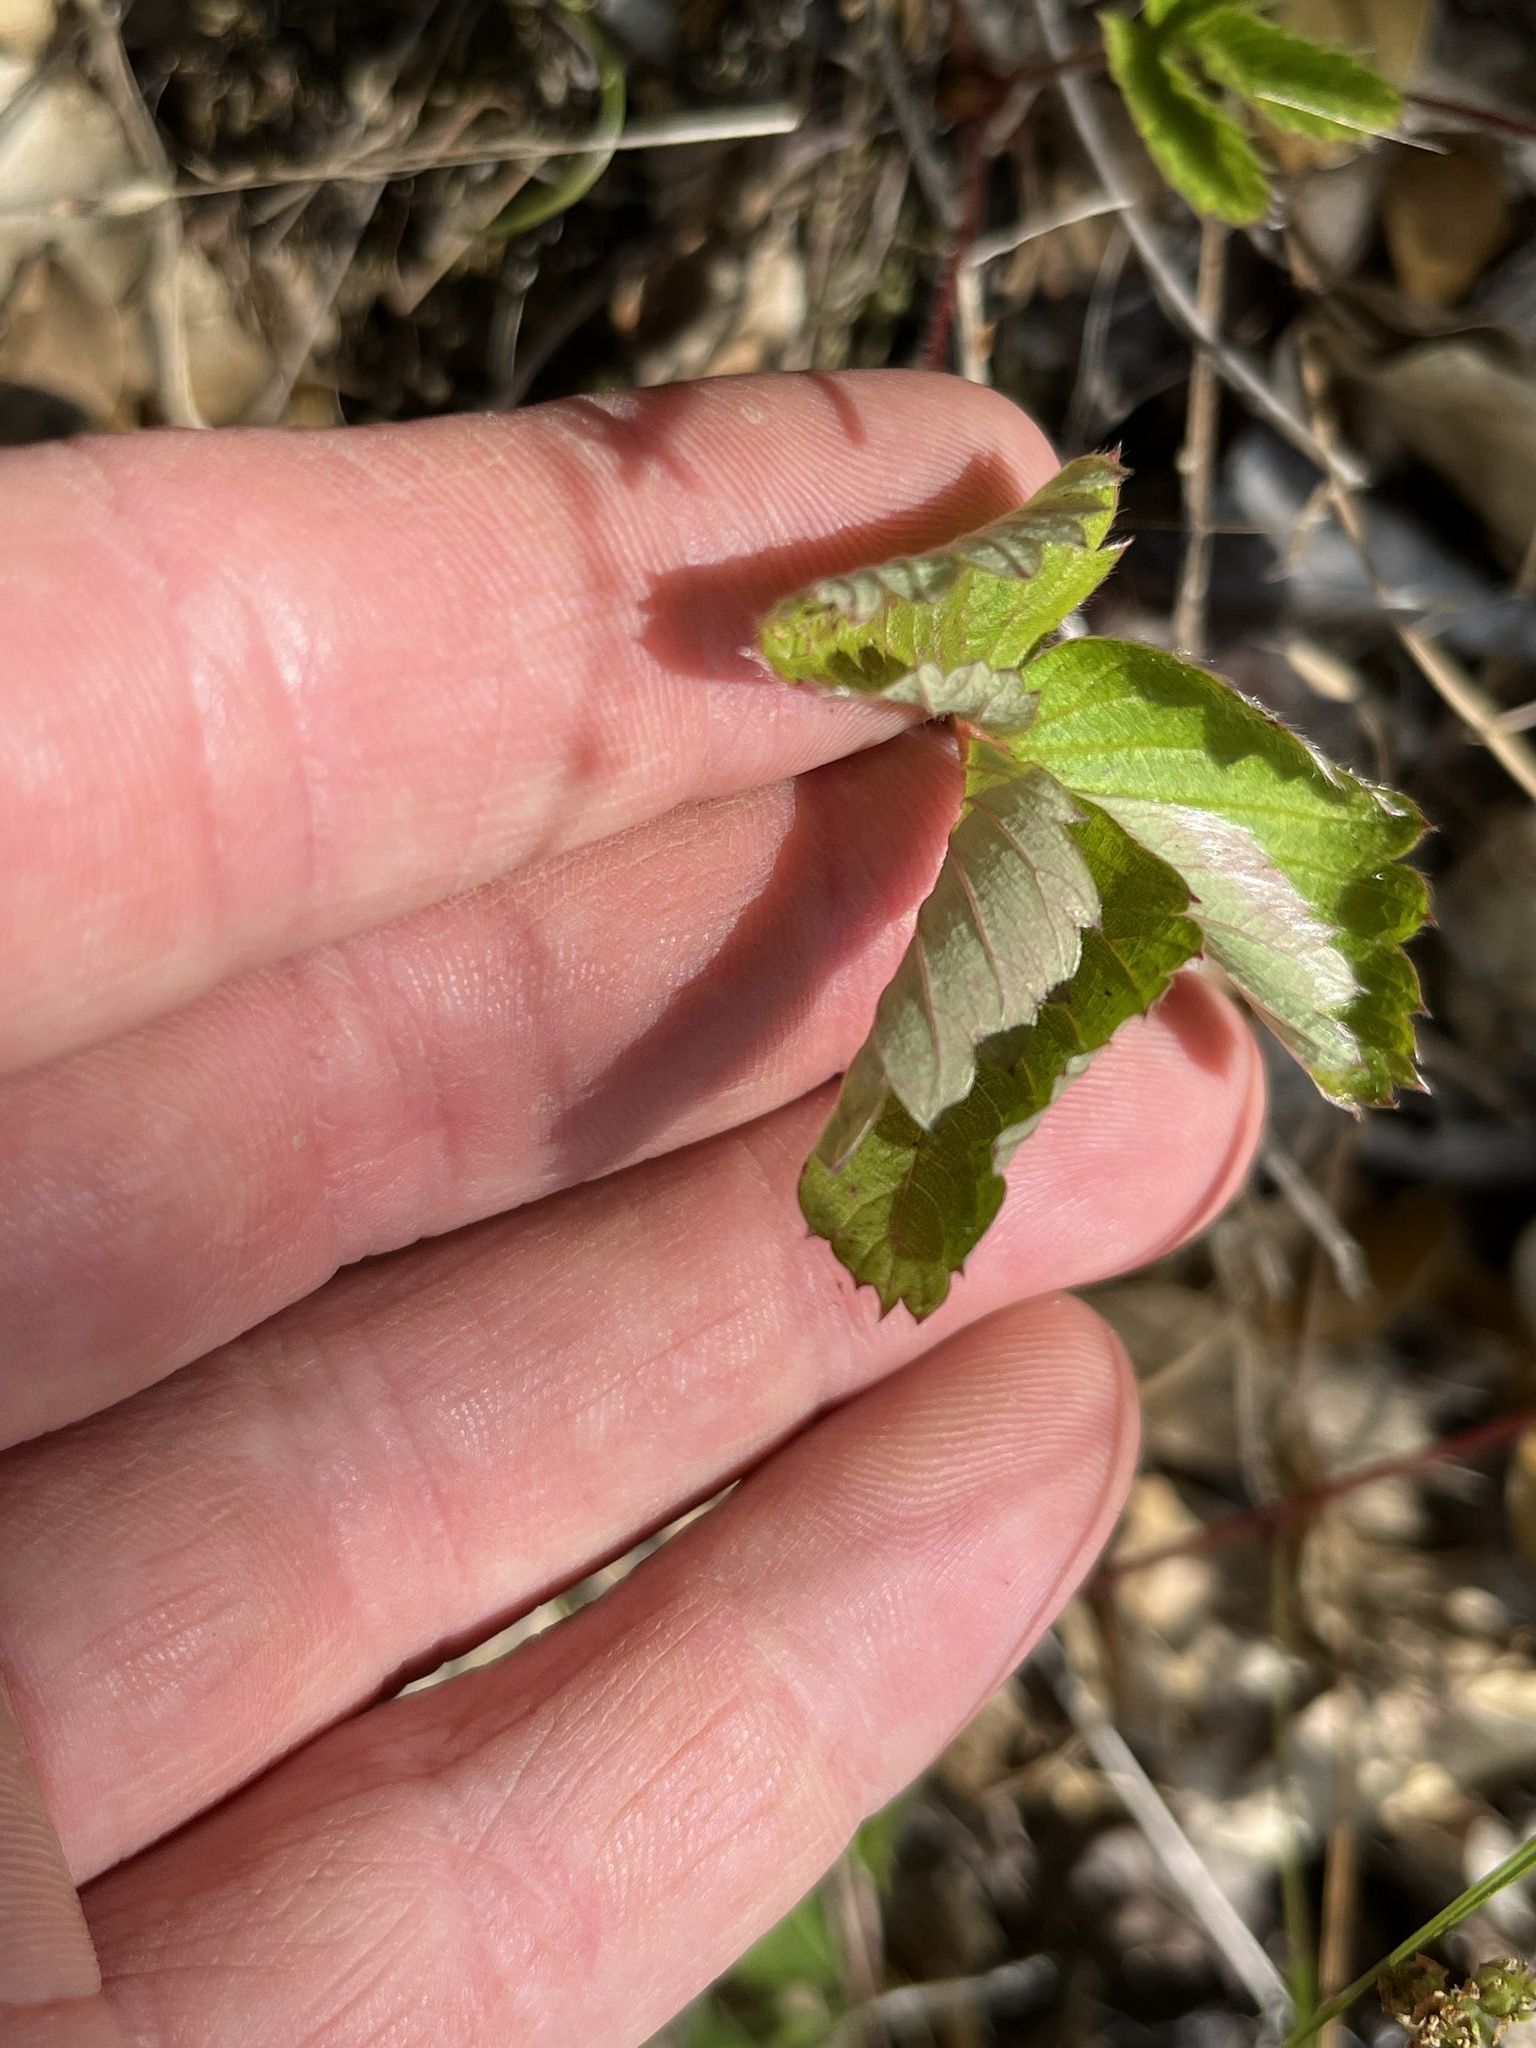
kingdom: Plantae
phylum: Tracheophyta
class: Magnoliopsida
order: Rosales
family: Rosaceae
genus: Fragaria
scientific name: Fragaria vesca
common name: Wild strawberry
